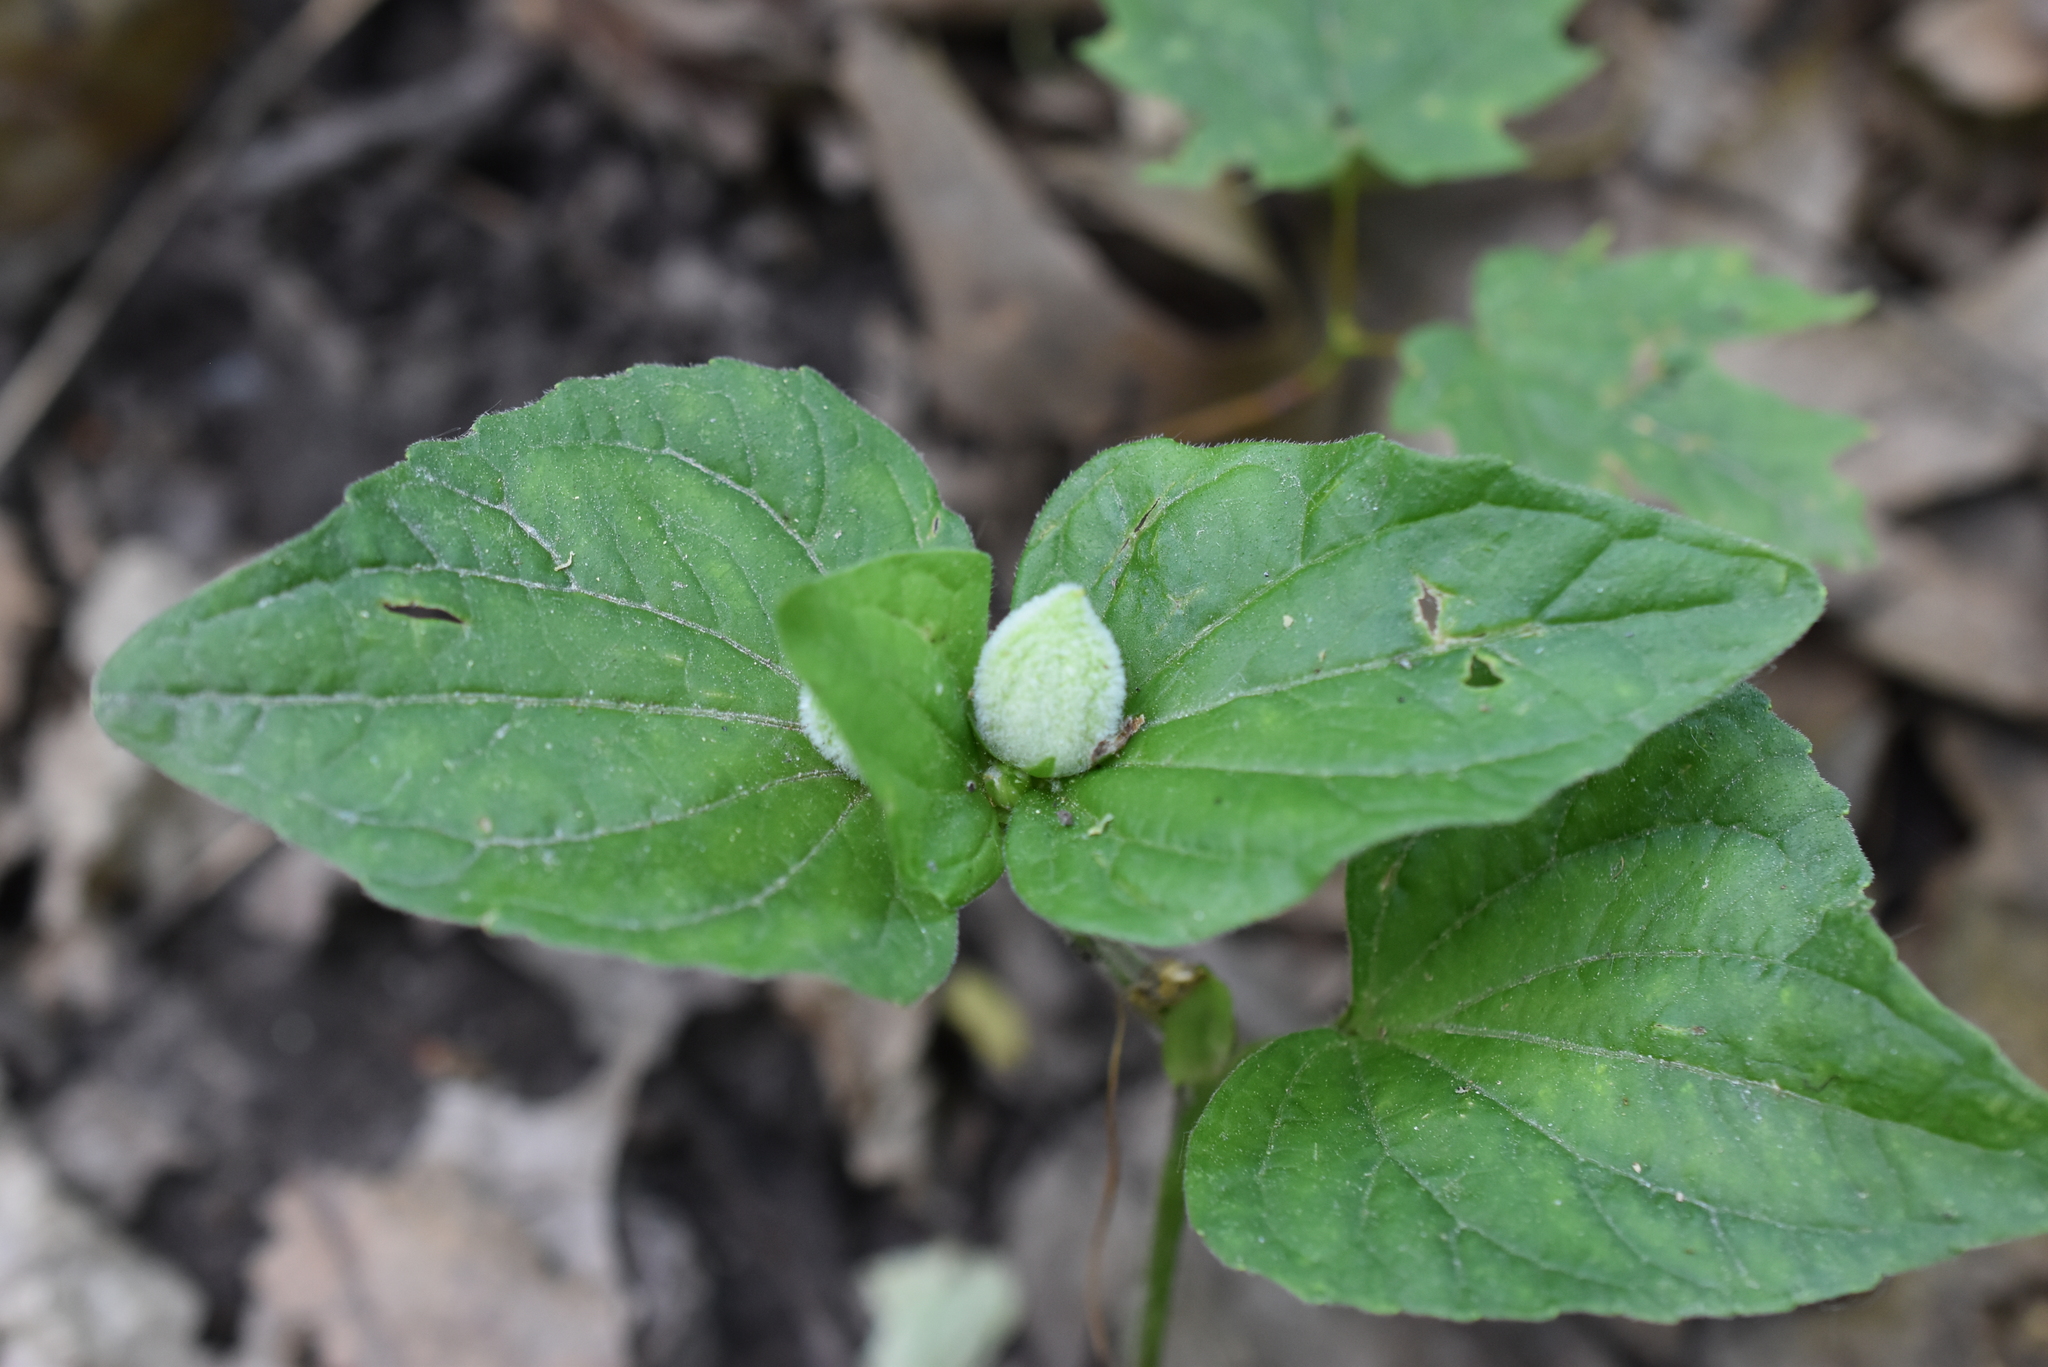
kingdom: Plantae
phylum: Tracheophyta
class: Magnoliopsida
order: Malpighiales
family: Violaceae
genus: Viola
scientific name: Viola eriocarpa
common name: Smooth yellow violet
